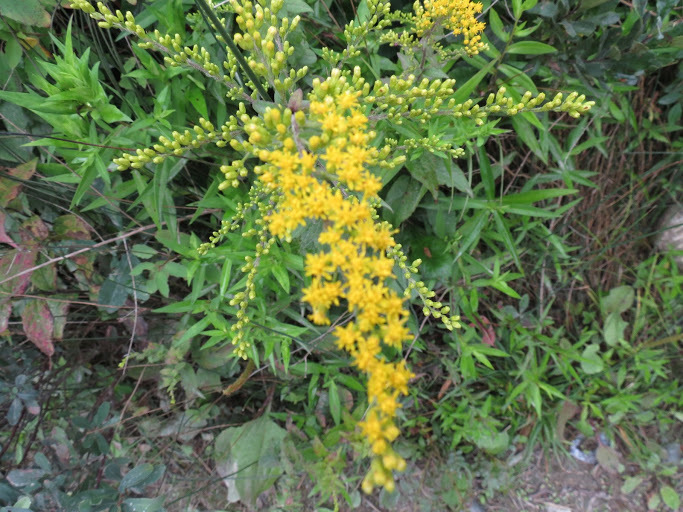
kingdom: Plantae
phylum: Tracheophyta
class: Magnoliopsida
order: Asterales
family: Asteraceae
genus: Solidago
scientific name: Solidago rugosa
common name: Rough-stemmed goldenrod
